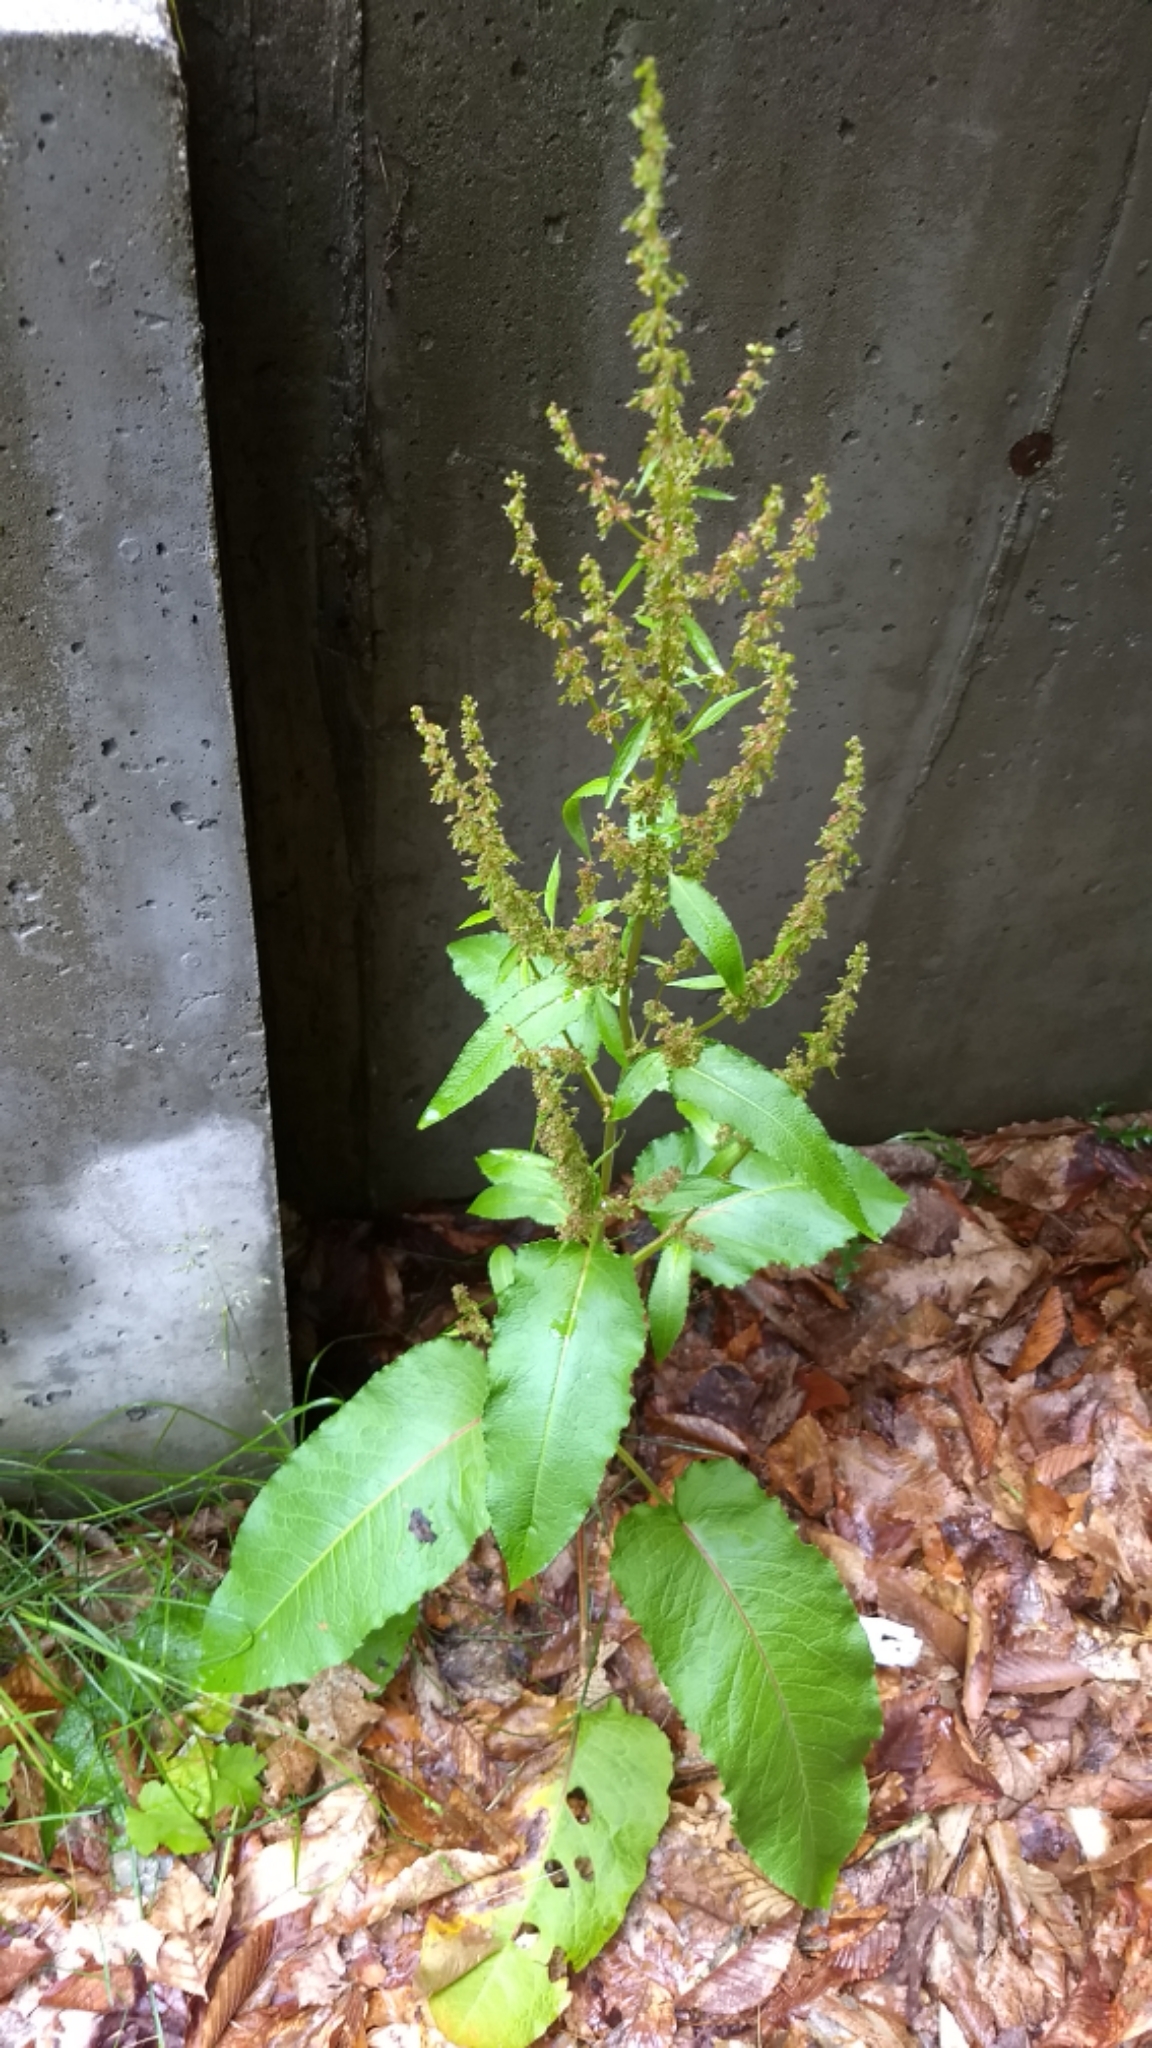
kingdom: Plantae
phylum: Tracheophyta
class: Magnoliopsida
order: Caryophyllales
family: Polygonaceae
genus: Rumex
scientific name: Rumex obtusifolius
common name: Bitter dock
